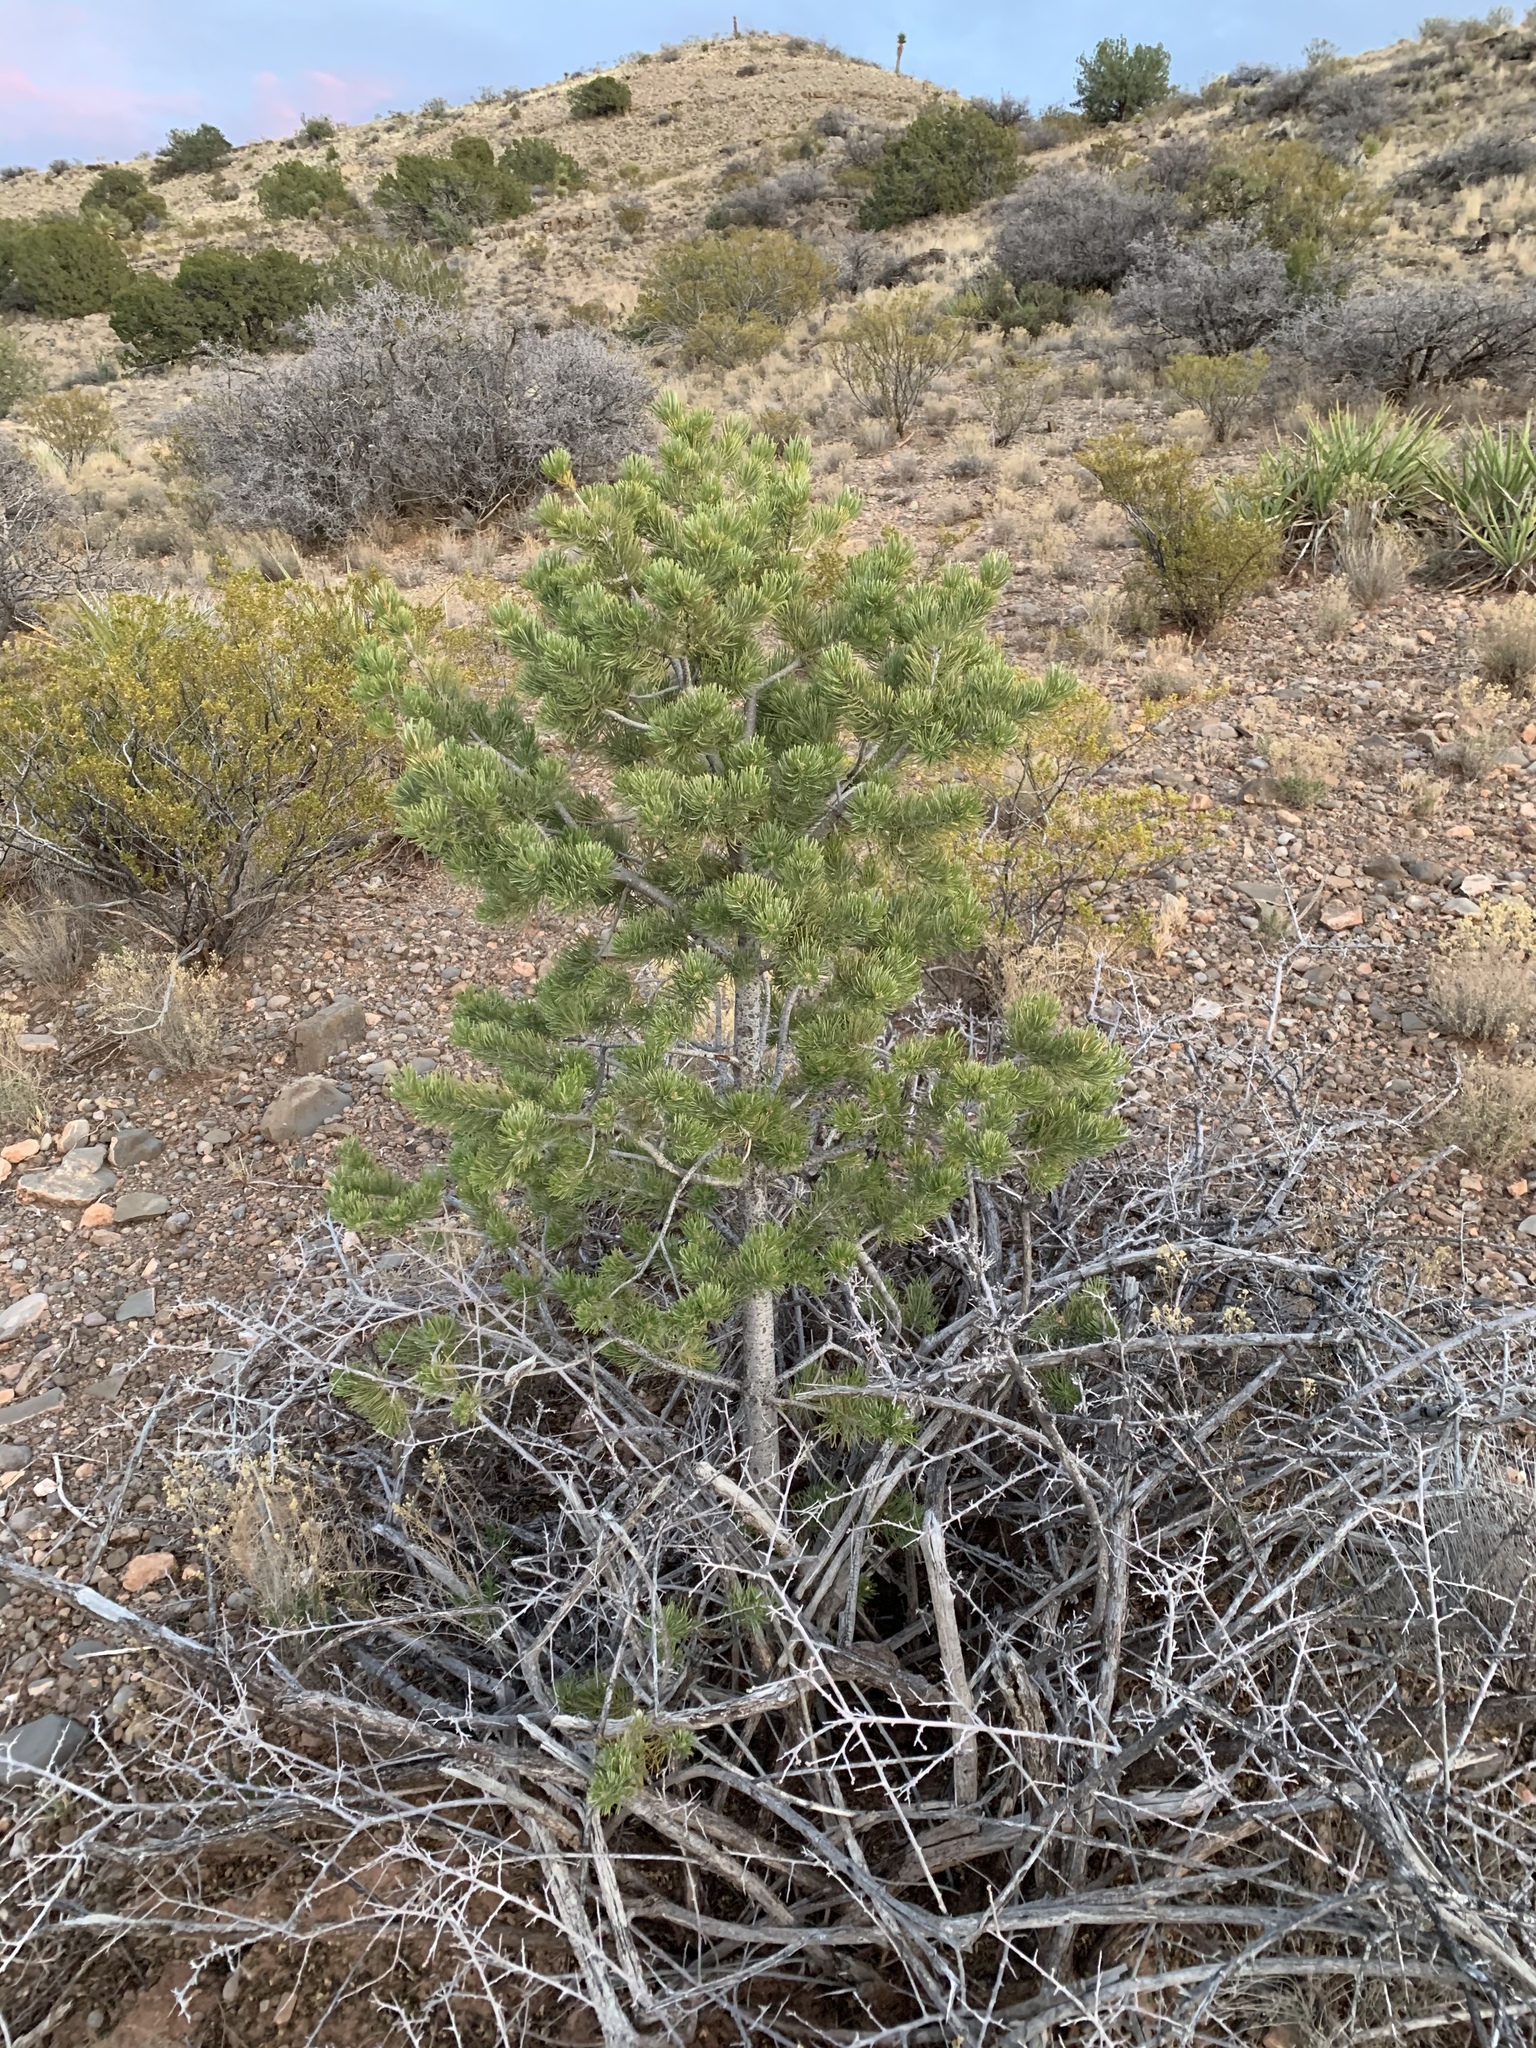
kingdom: Plantae
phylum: Tracheophyta
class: Pinopsida
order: Pinales
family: Pinaceae
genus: Pinus
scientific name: Pinus edulis
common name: Colorado pinyon
